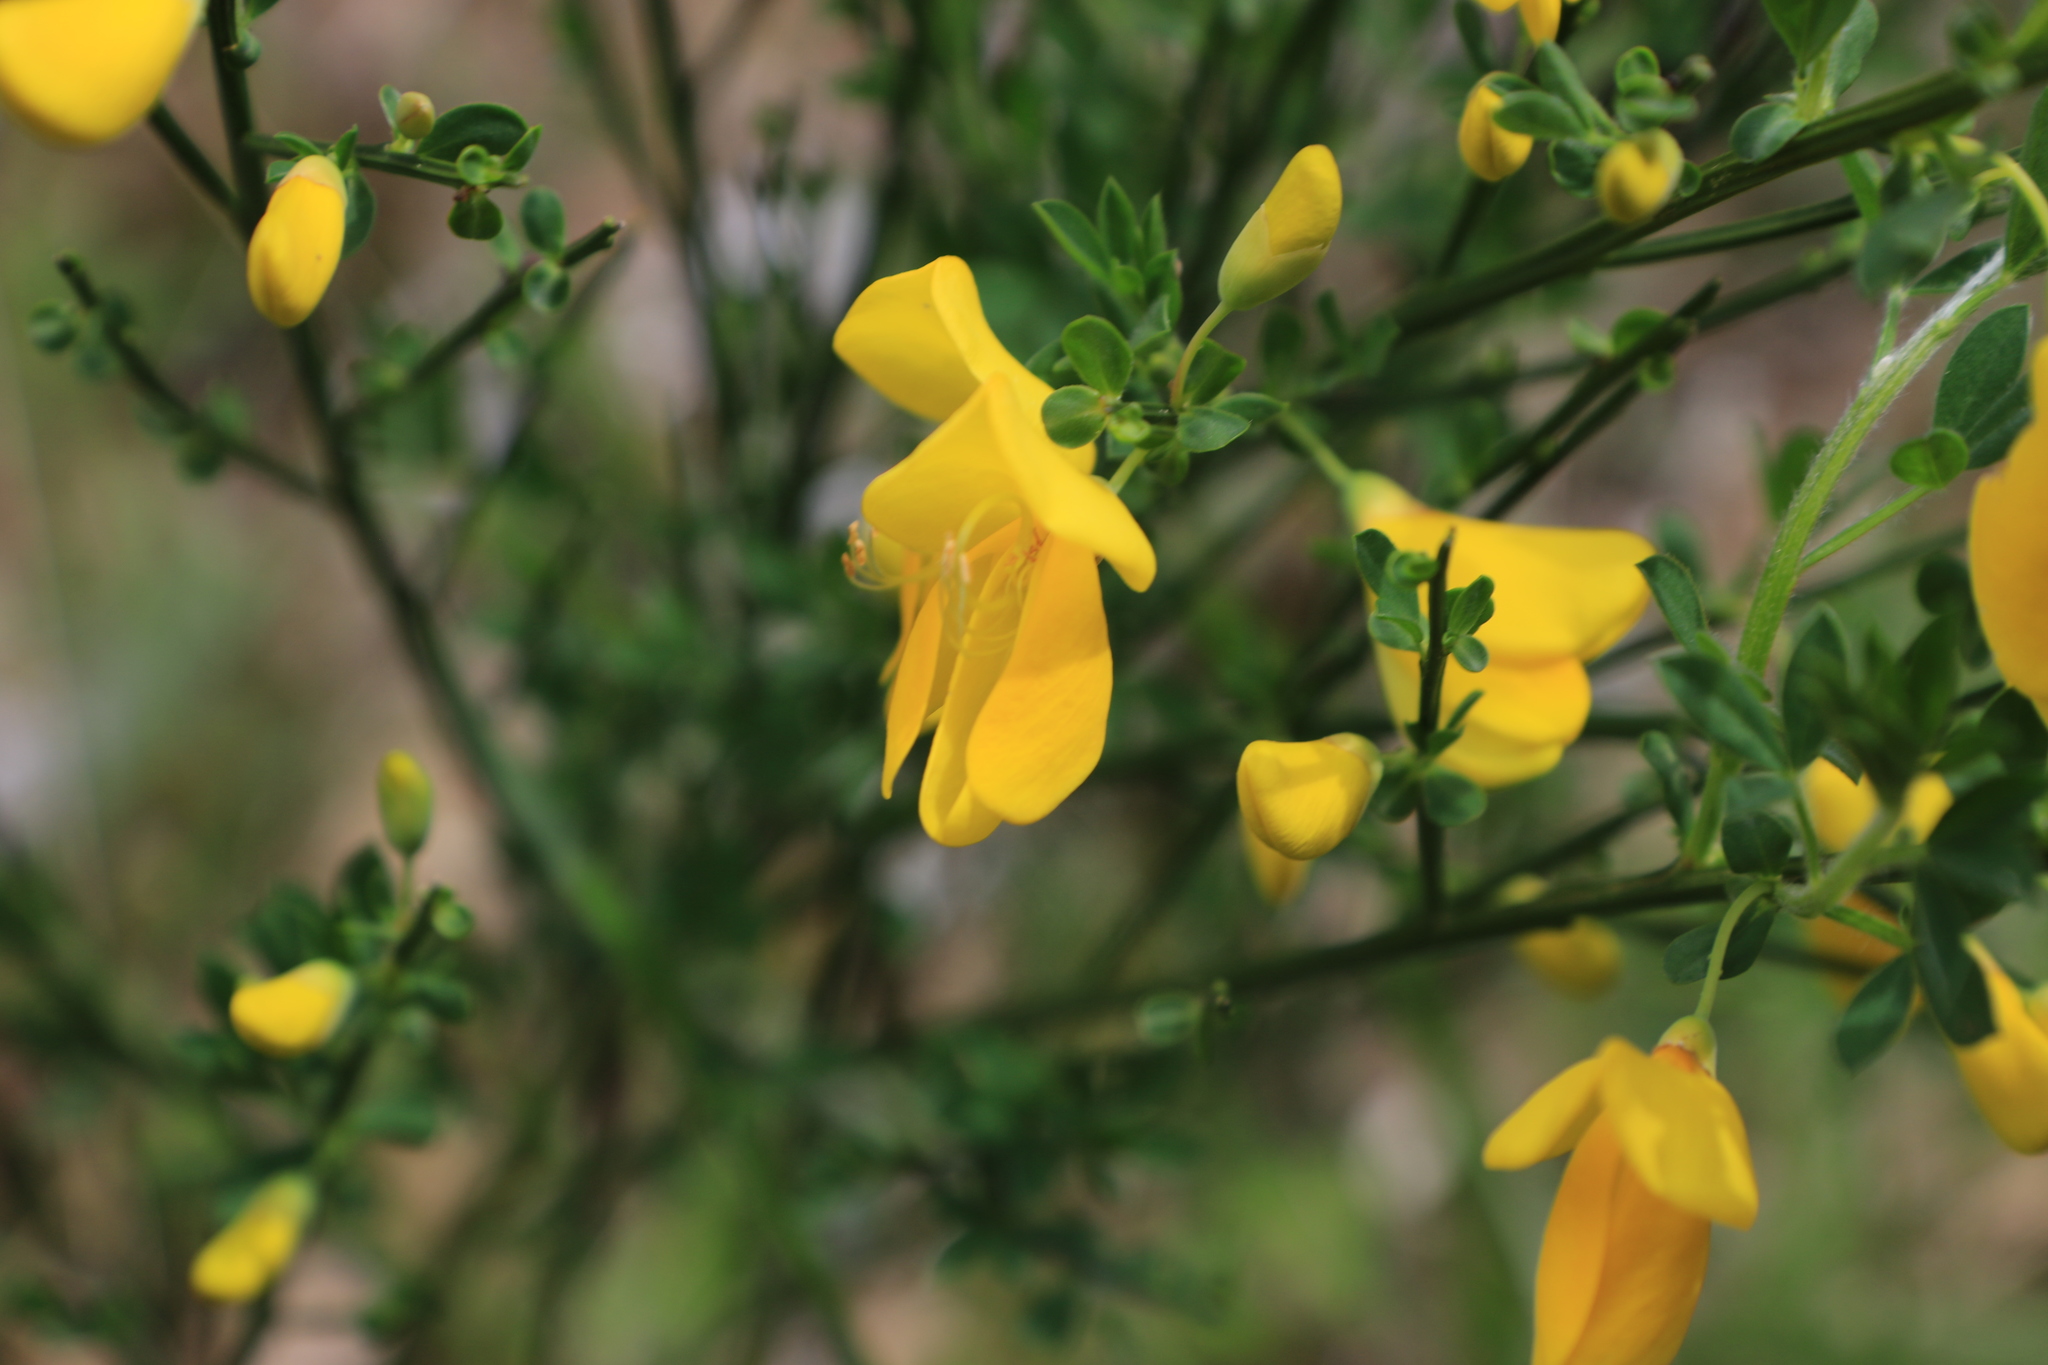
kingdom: Plantae
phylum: Tracheophyta
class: Magnoliopsida
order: Fabales
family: Fabaceae
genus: Cytisus
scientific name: Cytisus scoparius
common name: Scotch broom
